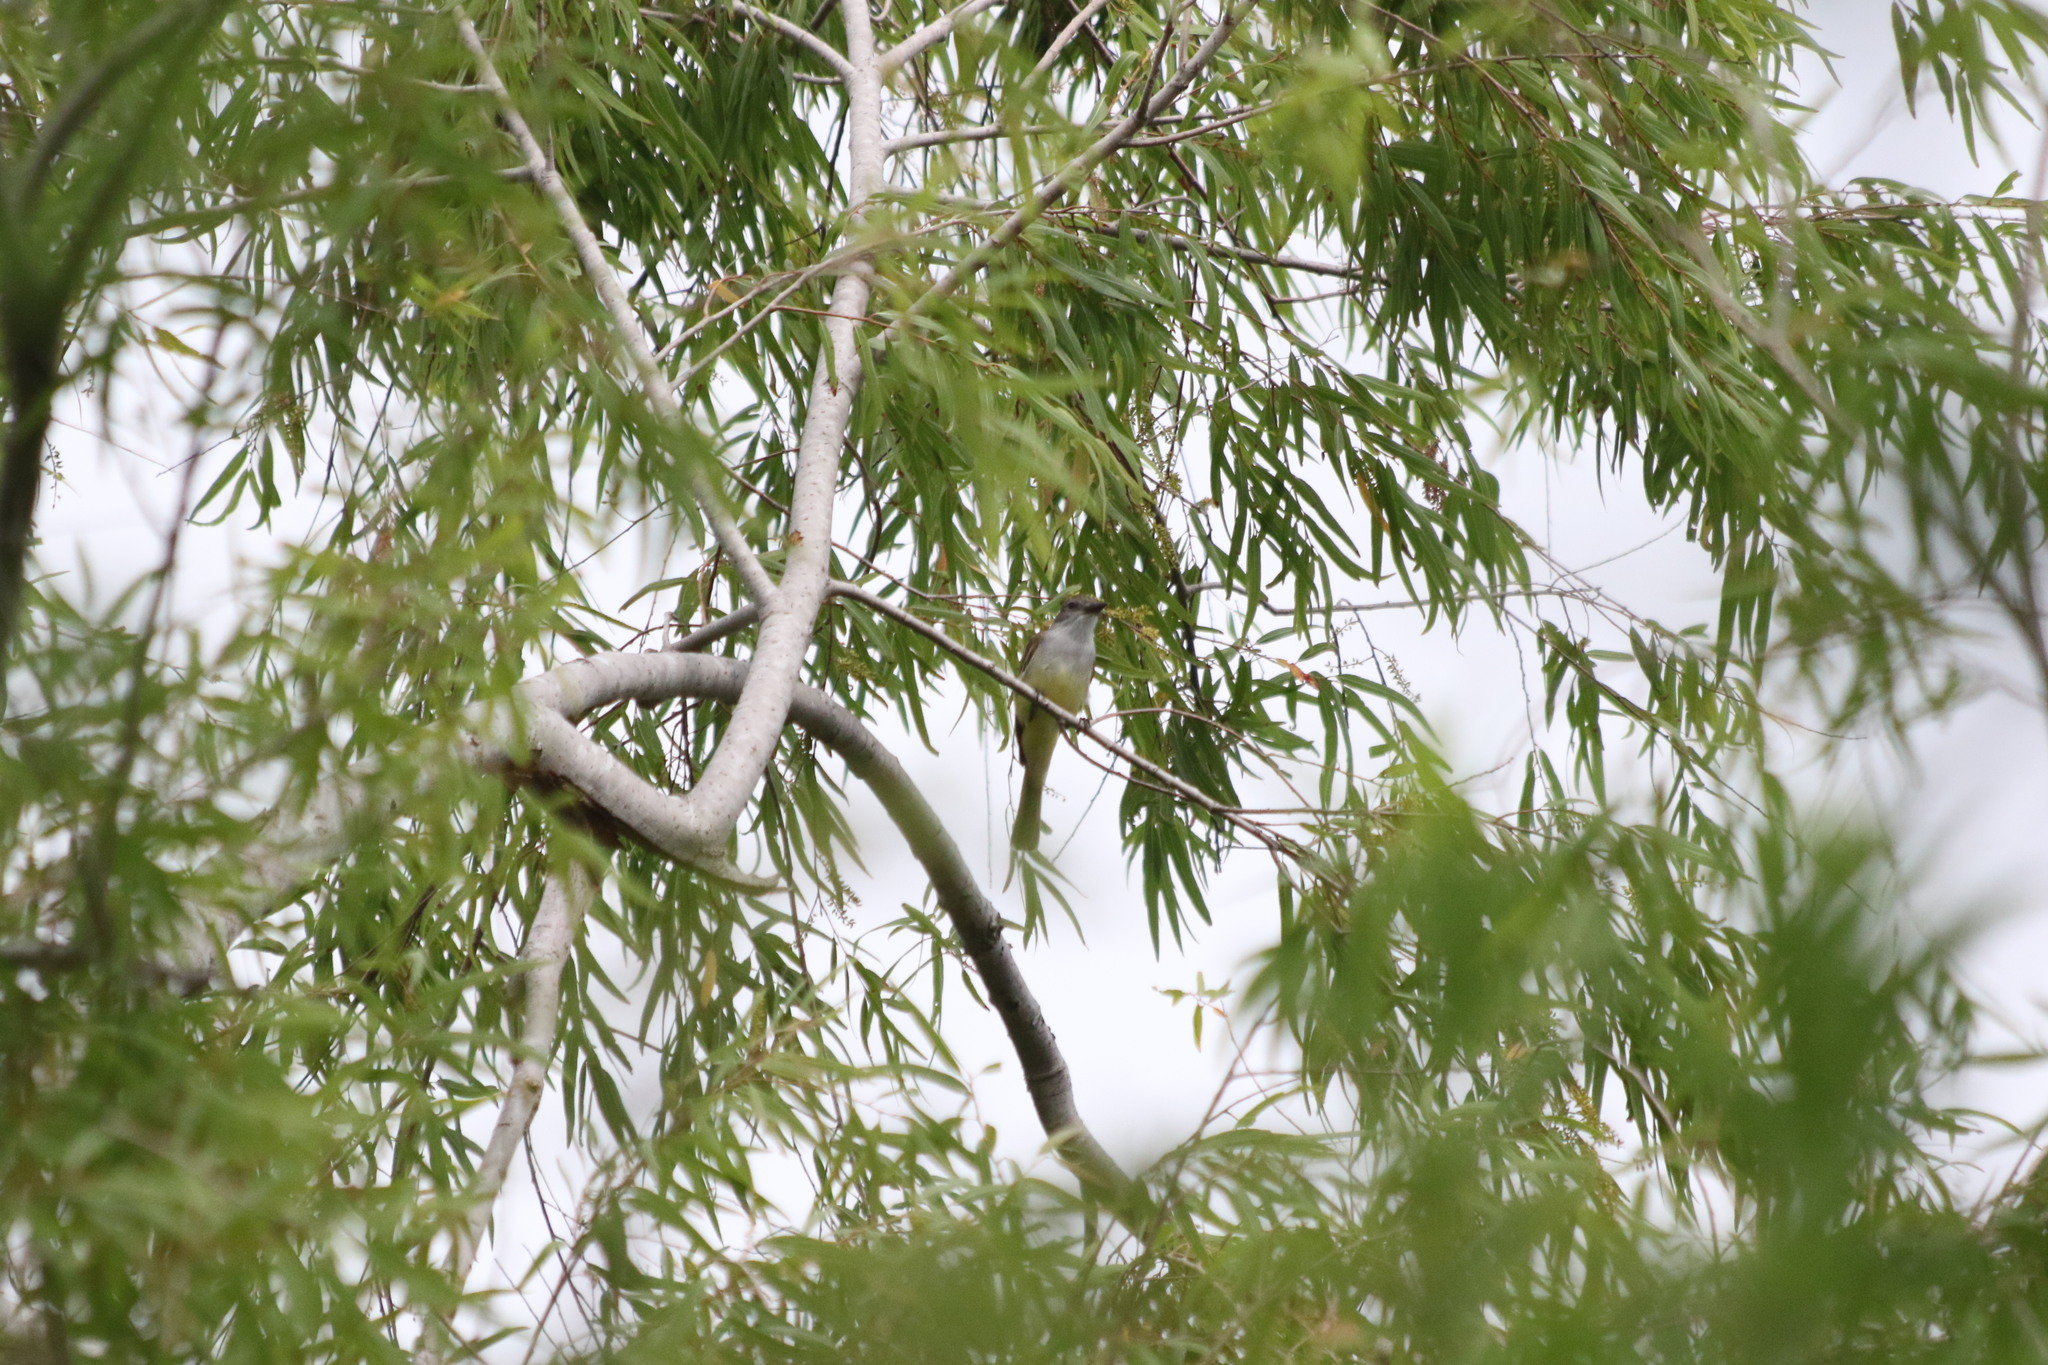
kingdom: Animalia
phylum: Chordata
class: Aves
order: Passeriformes
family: Tyrannidae
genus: Myiarchus
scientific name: Myiarchus tyrannulus
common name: Brown-crested flycatcher
